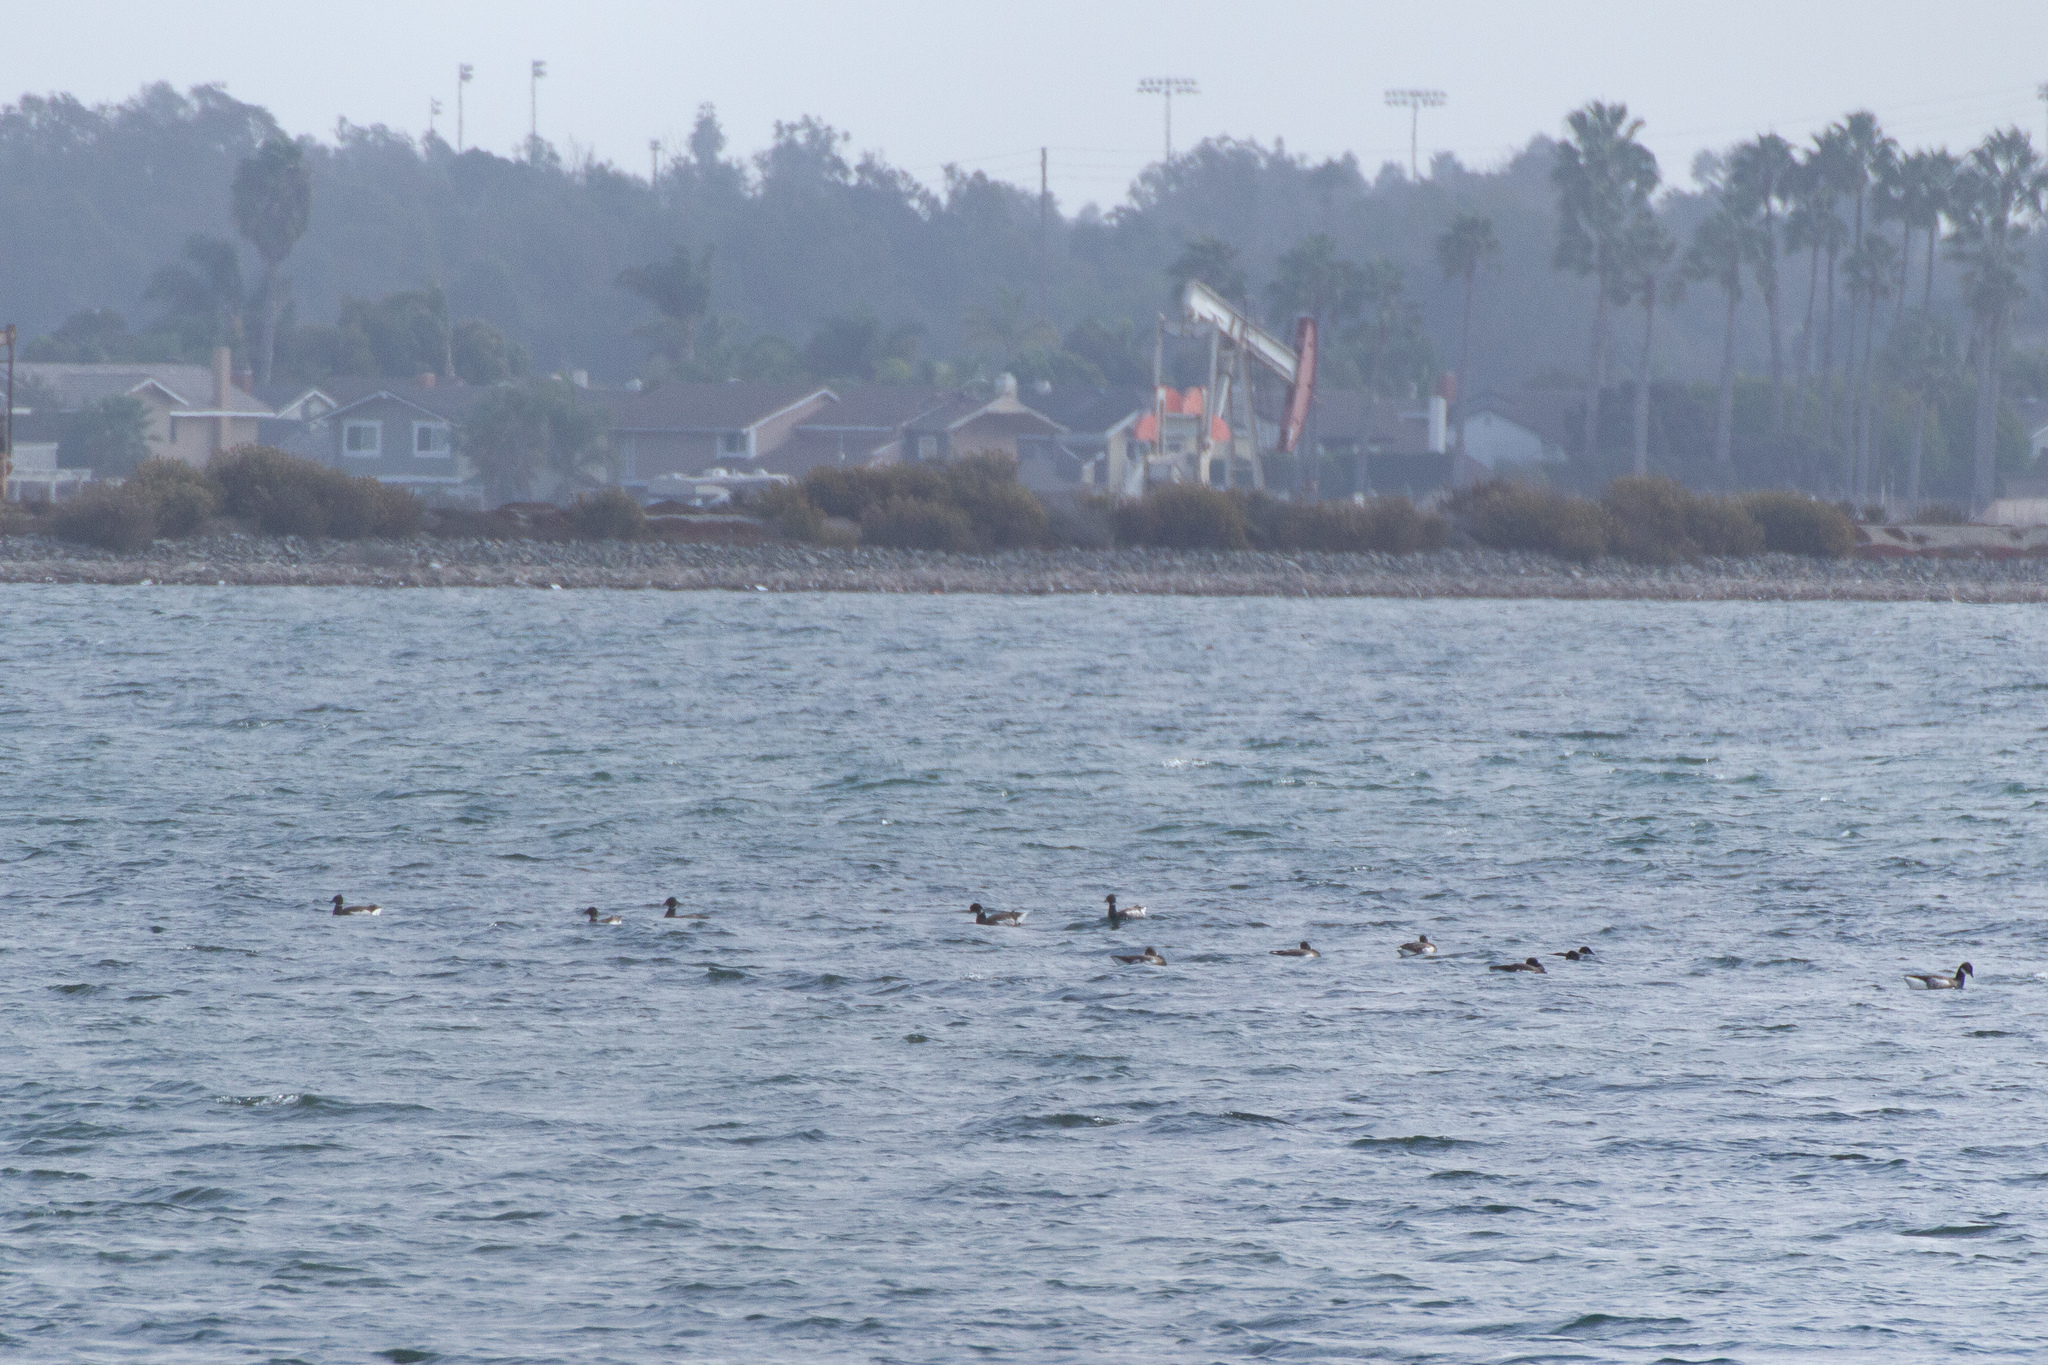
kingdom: Animalia
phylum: Chordata
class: Aves
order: Anseriformes
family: Anatidae
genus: Branta
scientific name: Branta bernicla
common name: Brant goose
